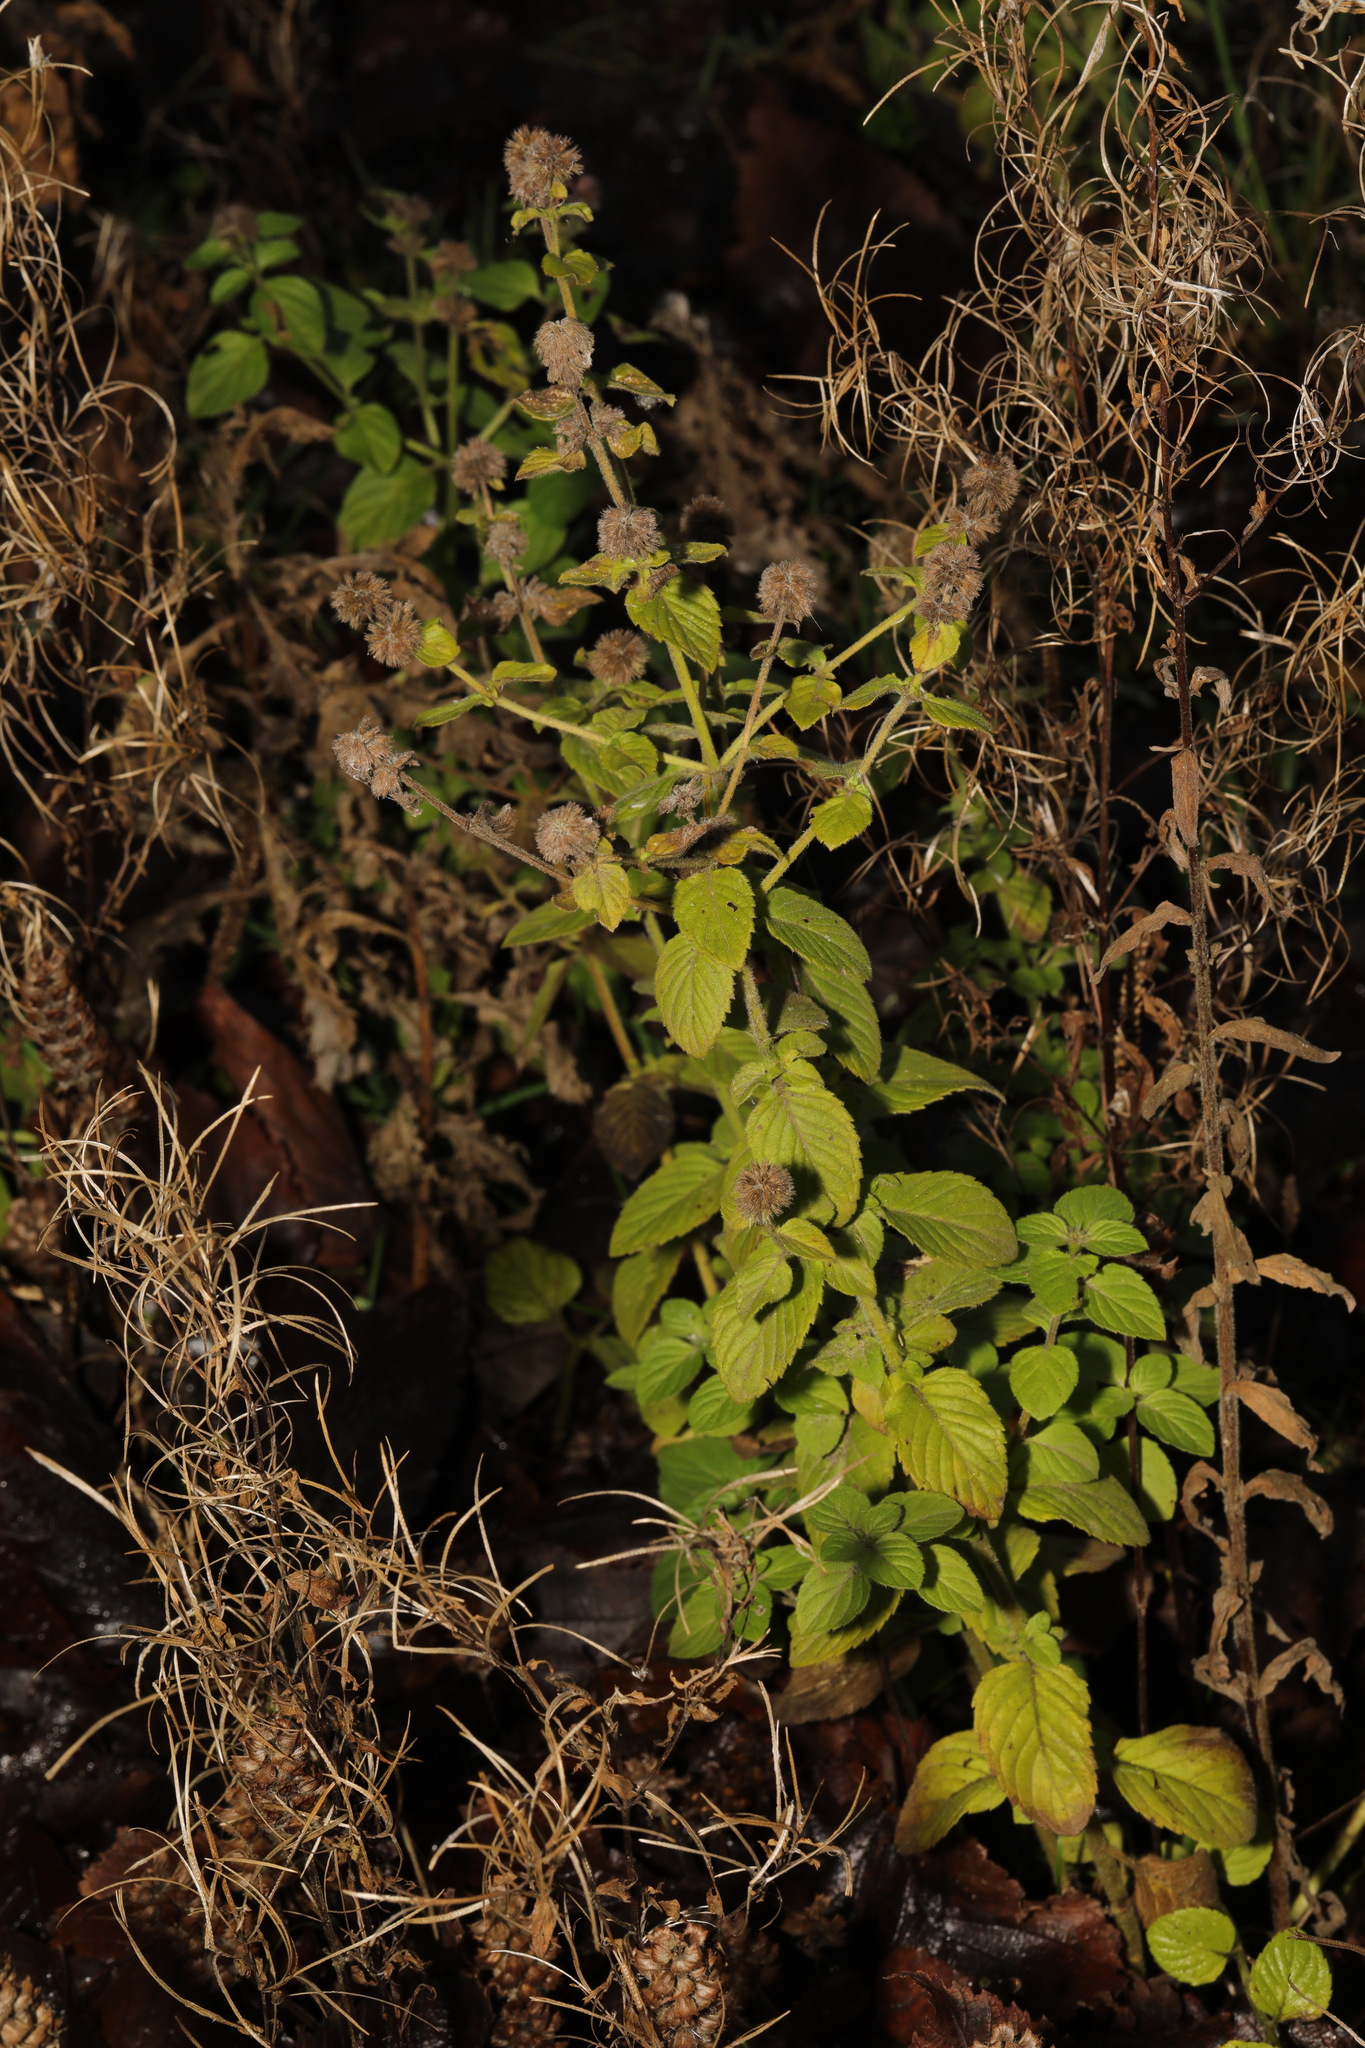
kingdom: Plantae
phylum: Tracheophyta
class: Magnoliopsida
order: Lamiales
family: Lamiaceae
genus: Mentha
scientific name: Mentha aquatica
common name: Water mint
